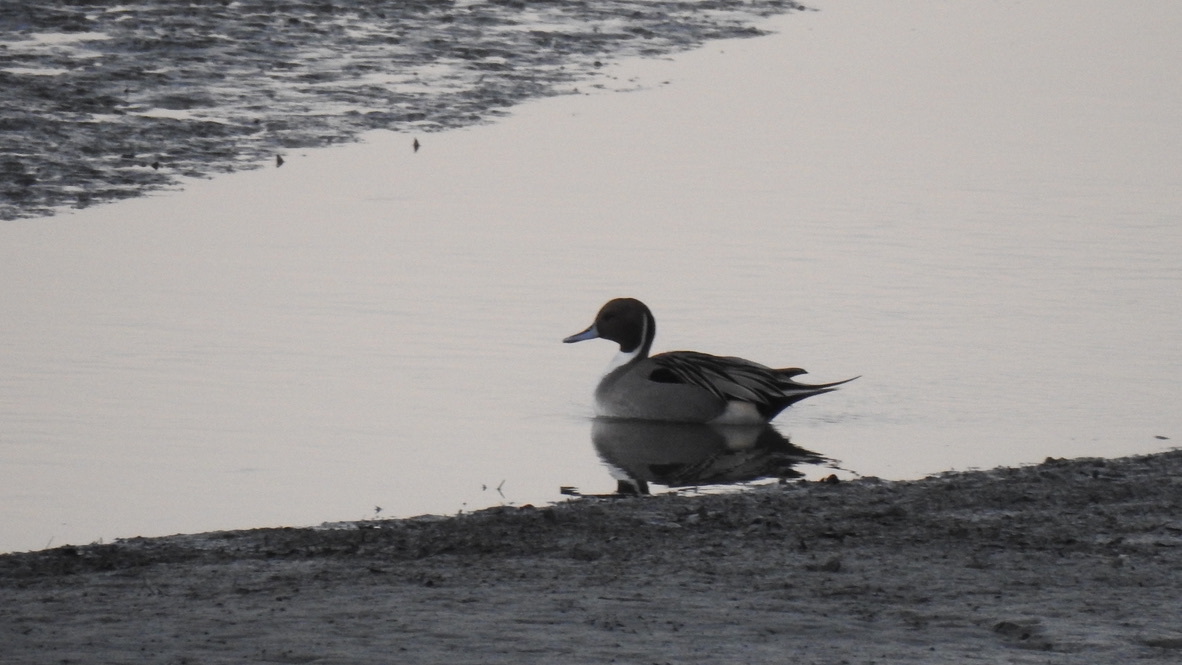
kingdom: Animalia
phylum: Chordata
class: Aves
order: Anseriformes
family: Anatidae
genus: Anas
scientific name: Anas acuta
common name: Northern pintail
